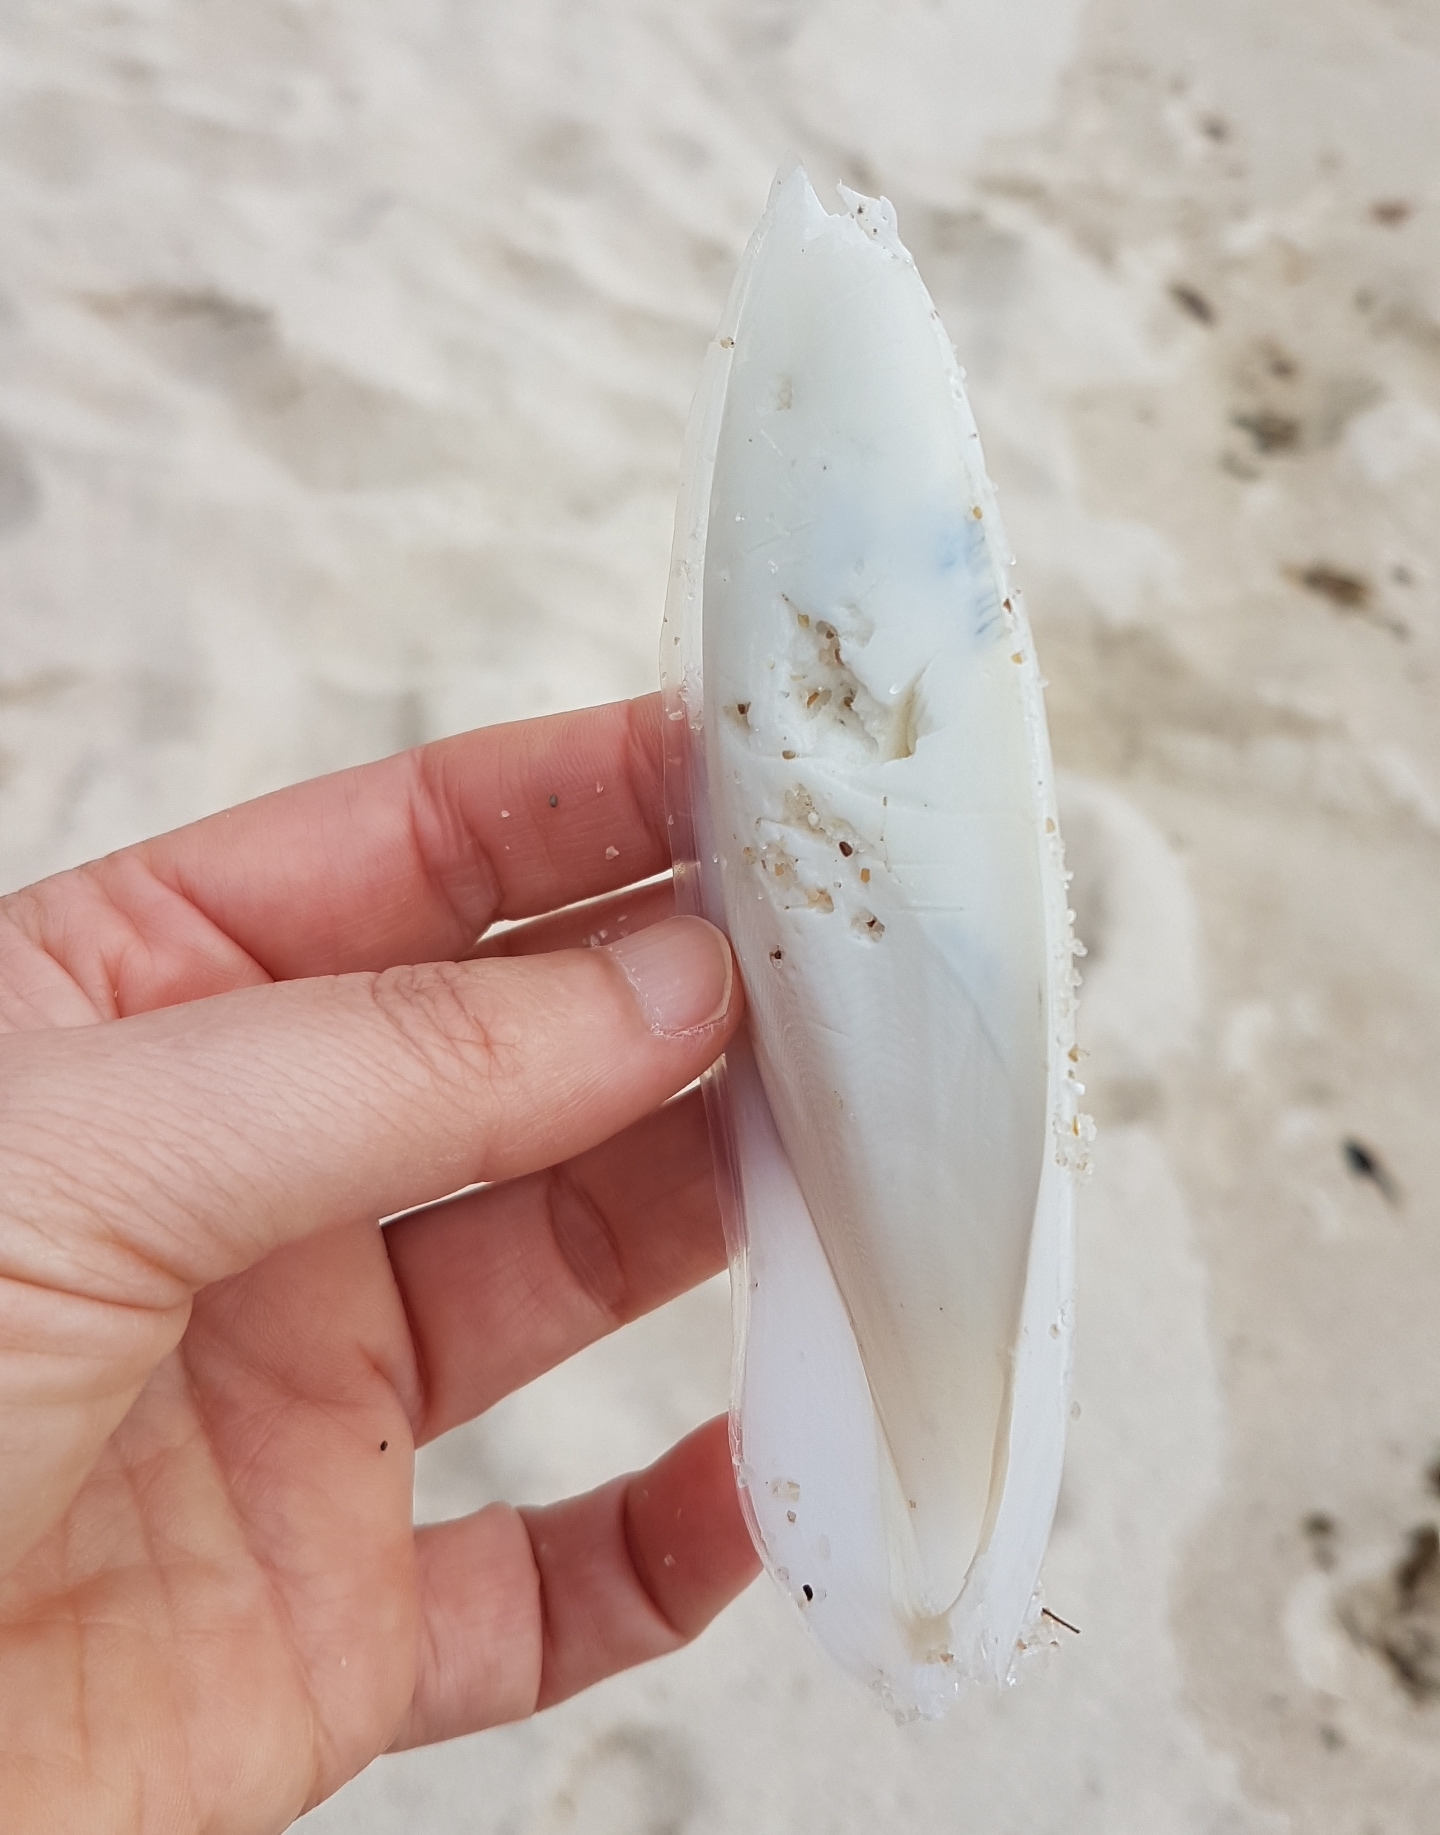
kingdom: Animalia
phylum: Mollusca
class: Cephalopoda
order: Sepiida
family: Sepiidae
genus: Sepia
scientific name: Sepia officinalis
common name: Common cuttlefish
